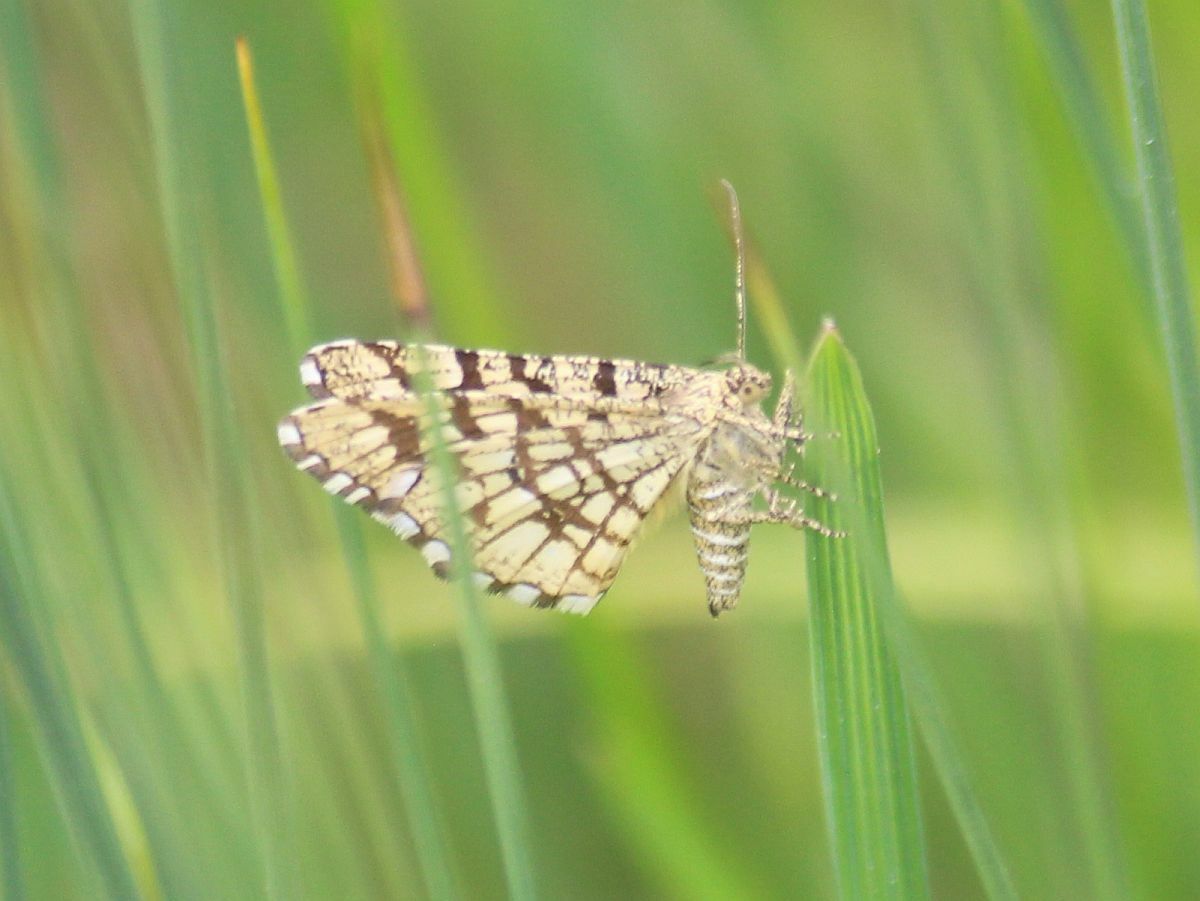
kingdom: Animalia
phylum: Arthropoda
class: Insecta
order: Lepidoptera
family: Geometridae
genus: Chiasmia
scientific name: Chiasmia clathrata
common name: Latticed heath
